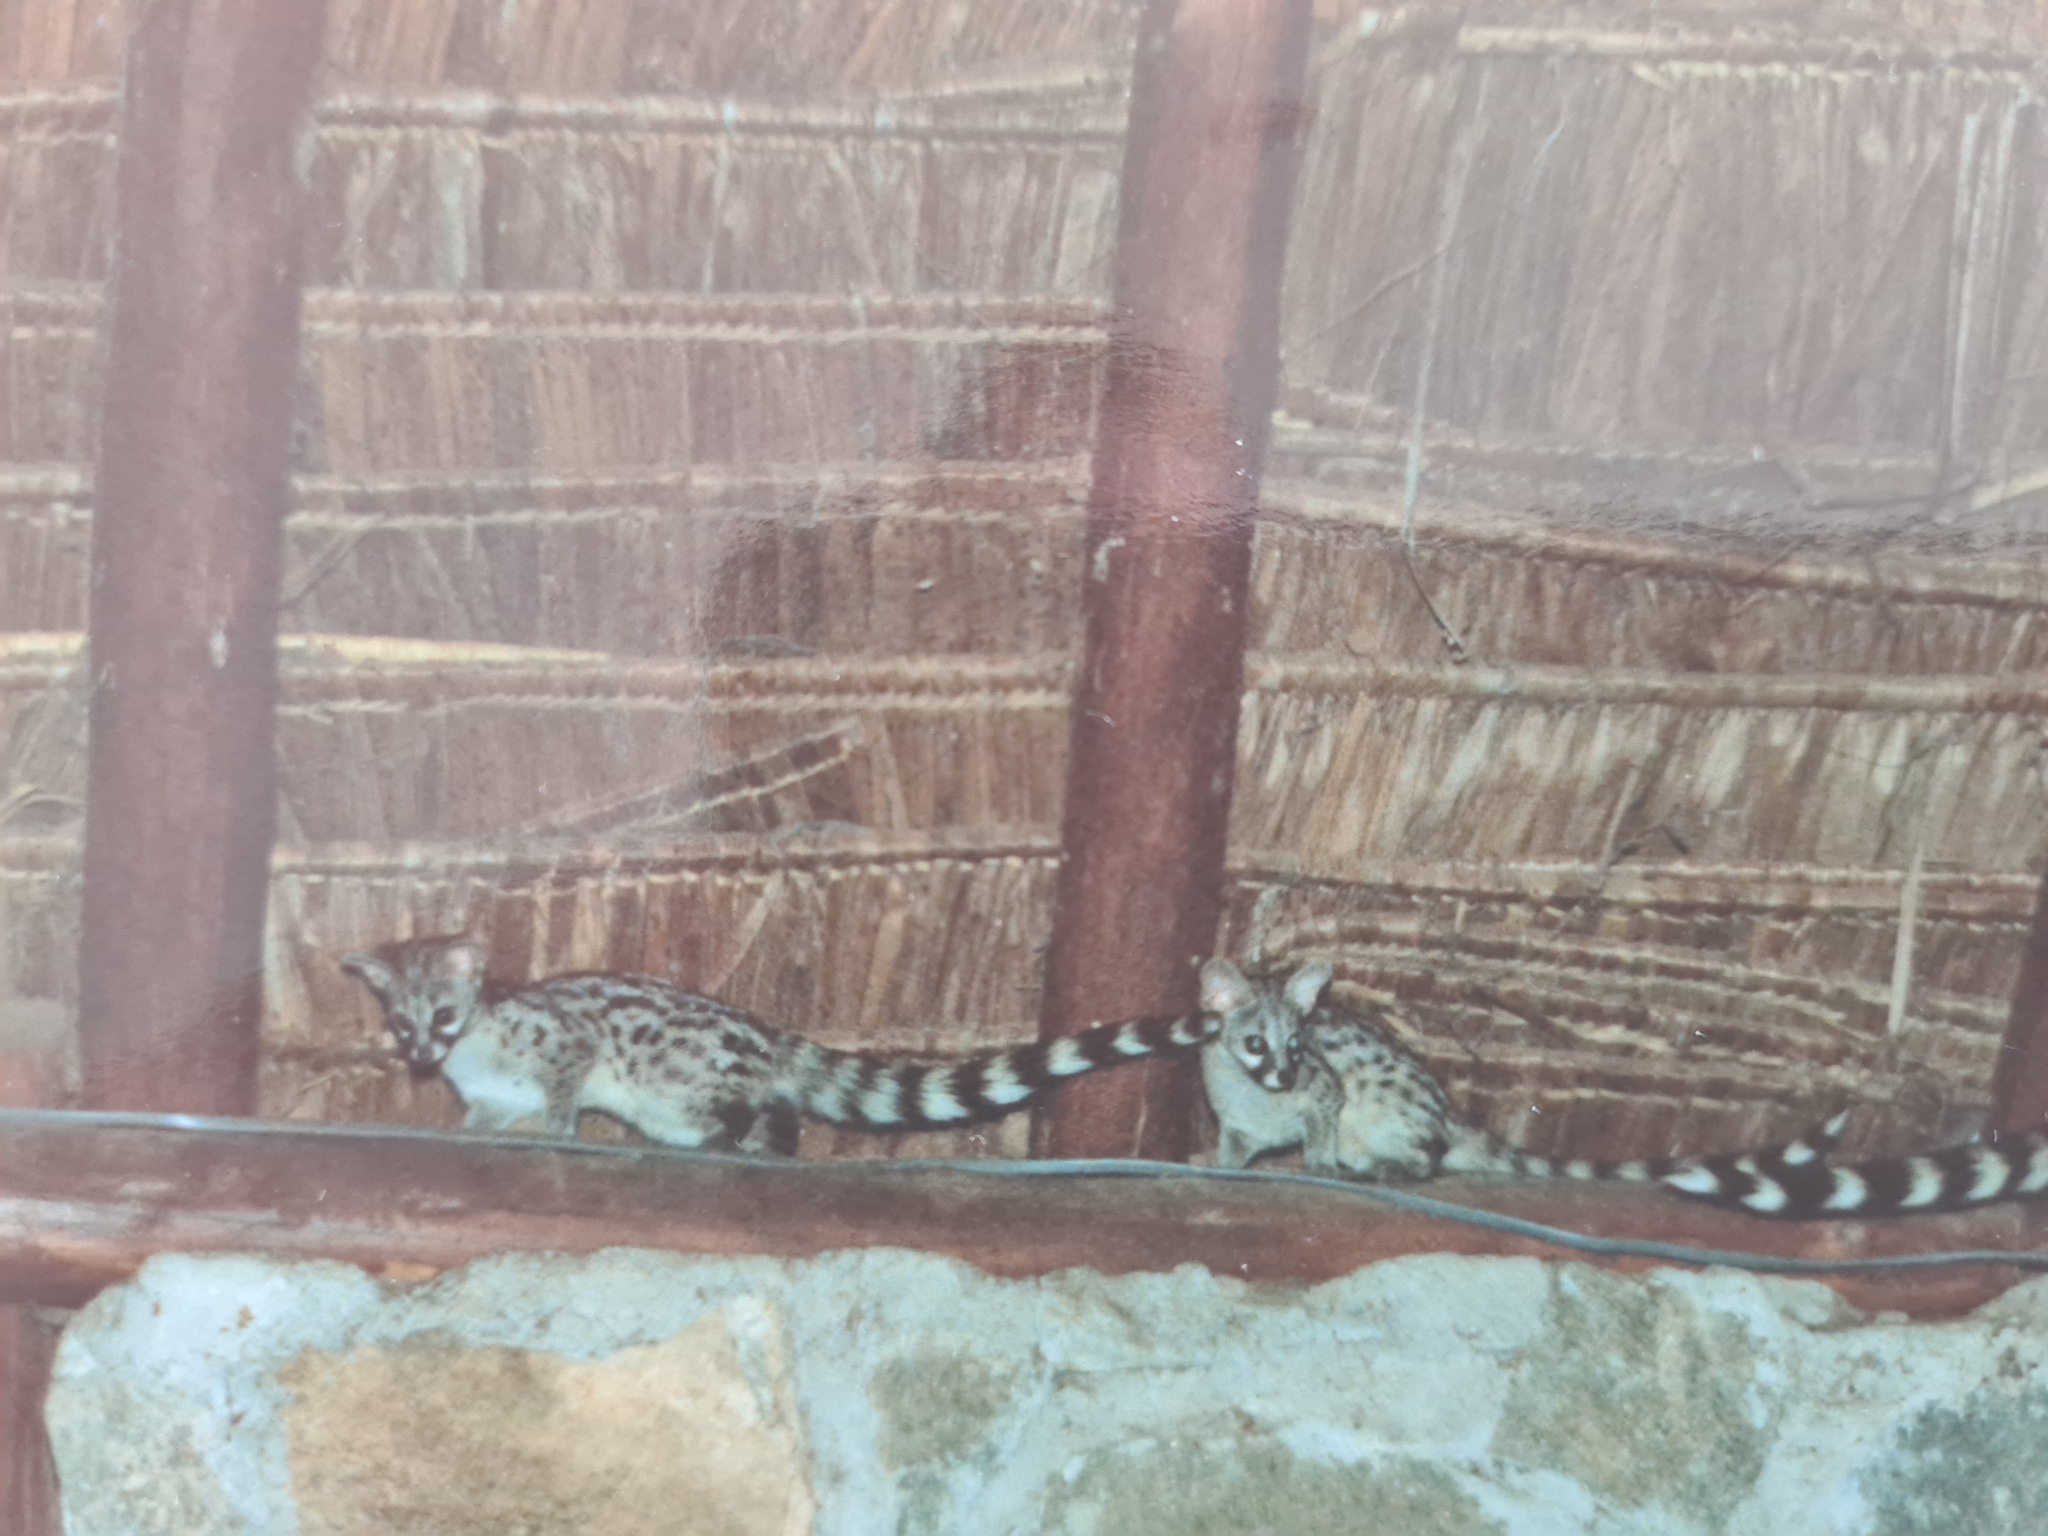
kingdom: Animalia
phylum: Chordata
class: Mammalia
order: Carnivora
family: Viverridae
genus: Genetta
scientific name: Genetta genetta
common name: Common genet
